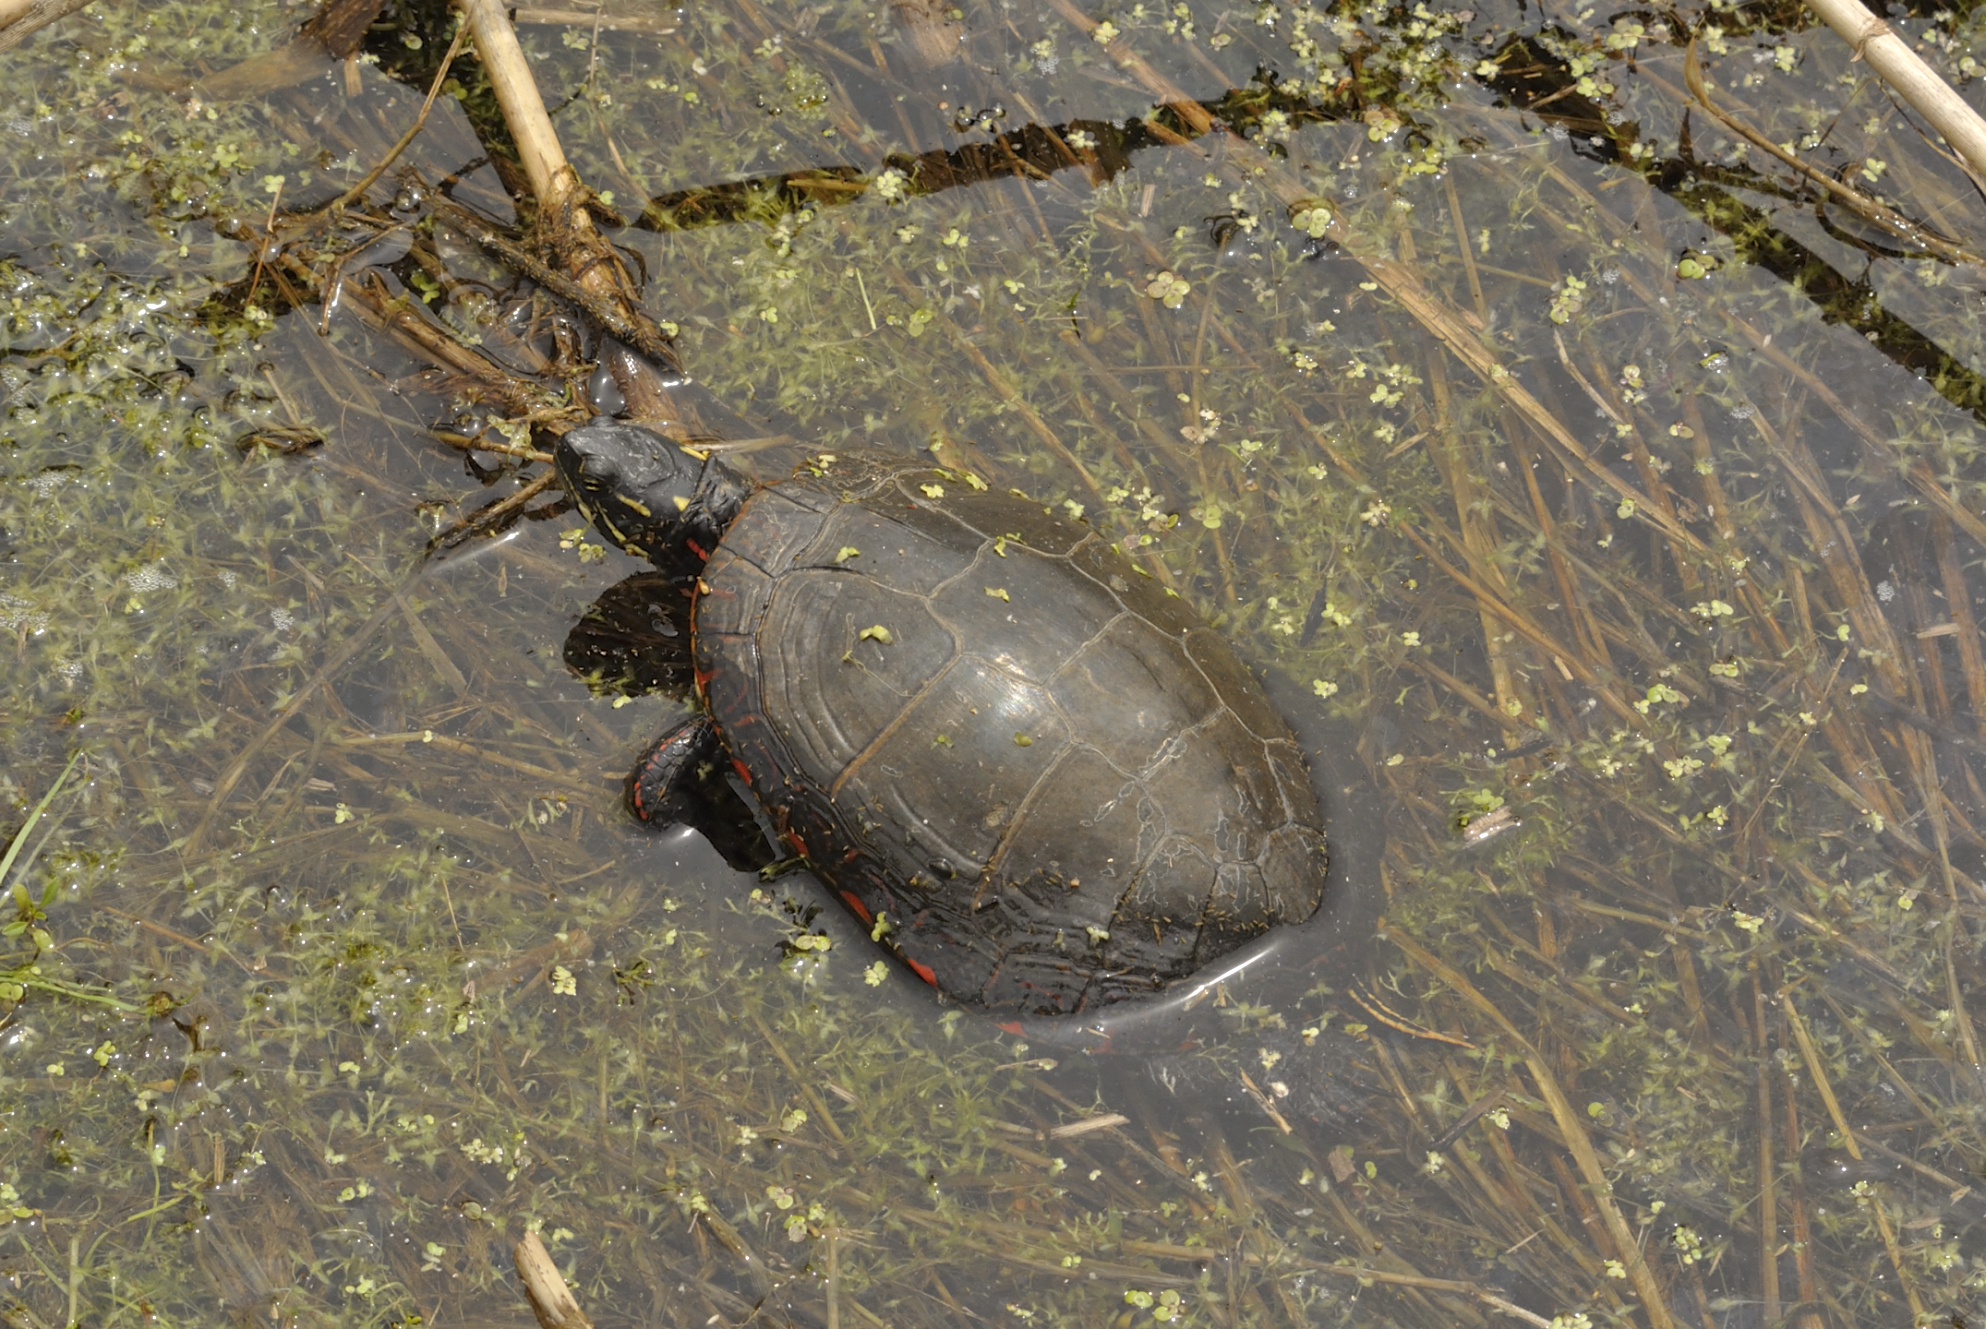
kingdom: Animalia
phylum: Chordata
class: Testudines
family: Emydidae
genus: Chrysemys
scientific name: Chrysemys picta
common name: Painted turtle
